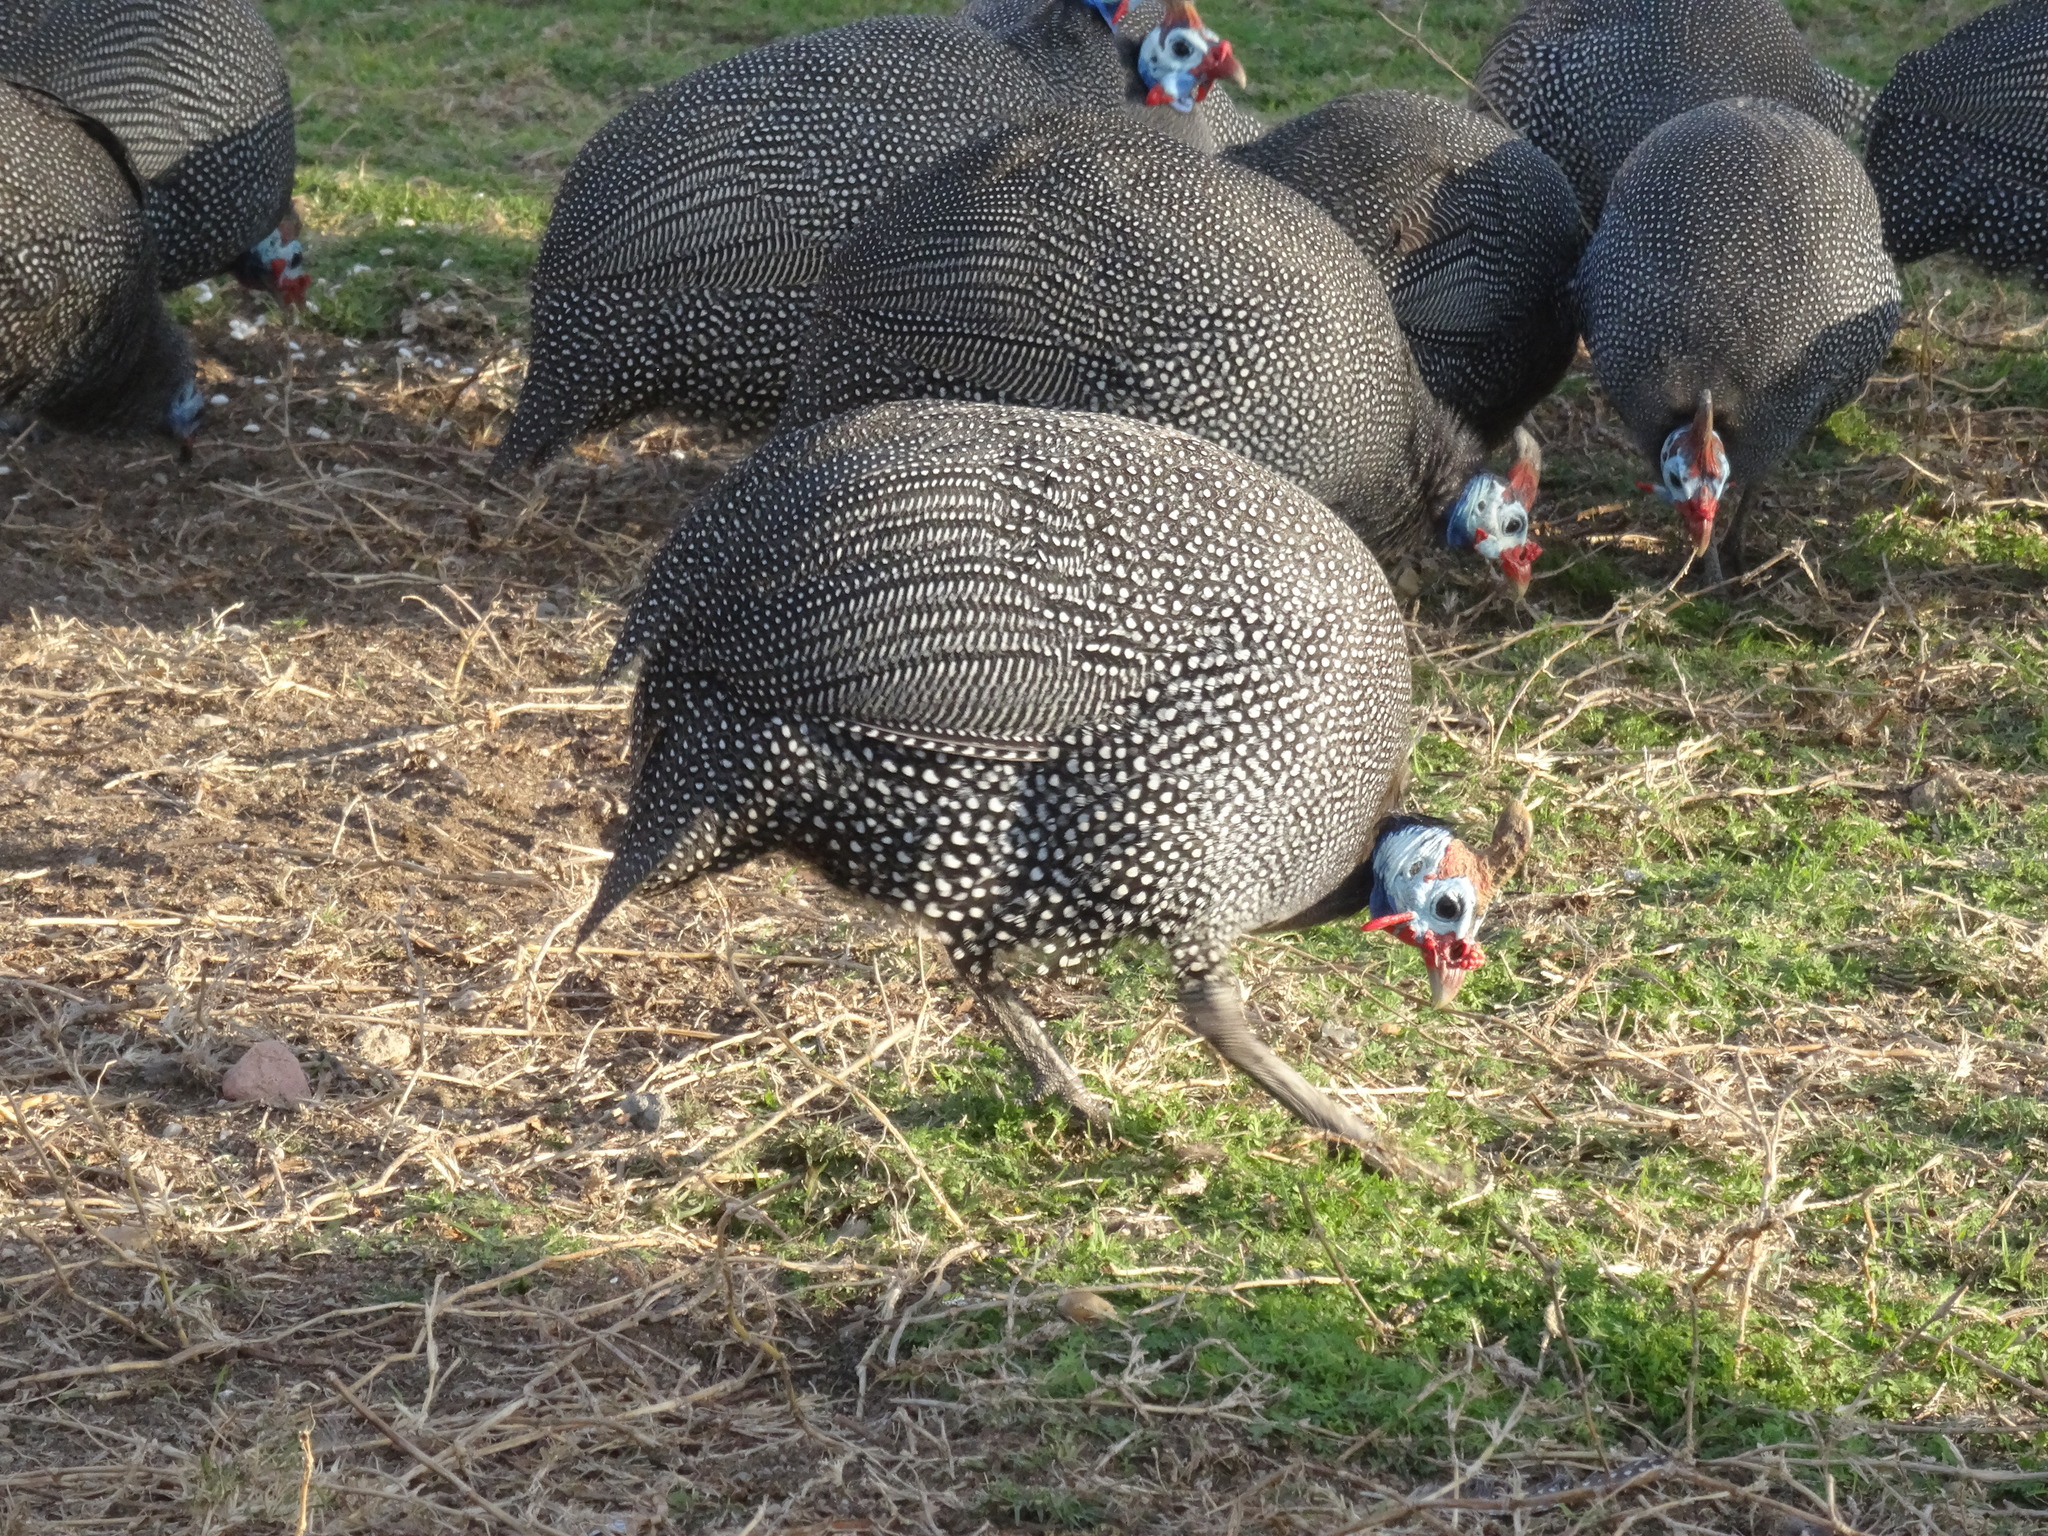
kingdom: Animalia
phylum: Chordata
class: Aves
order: Galliformes
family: Numididae
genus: Numida
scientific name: Numida meleagris
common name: Helmeted guineafowl
